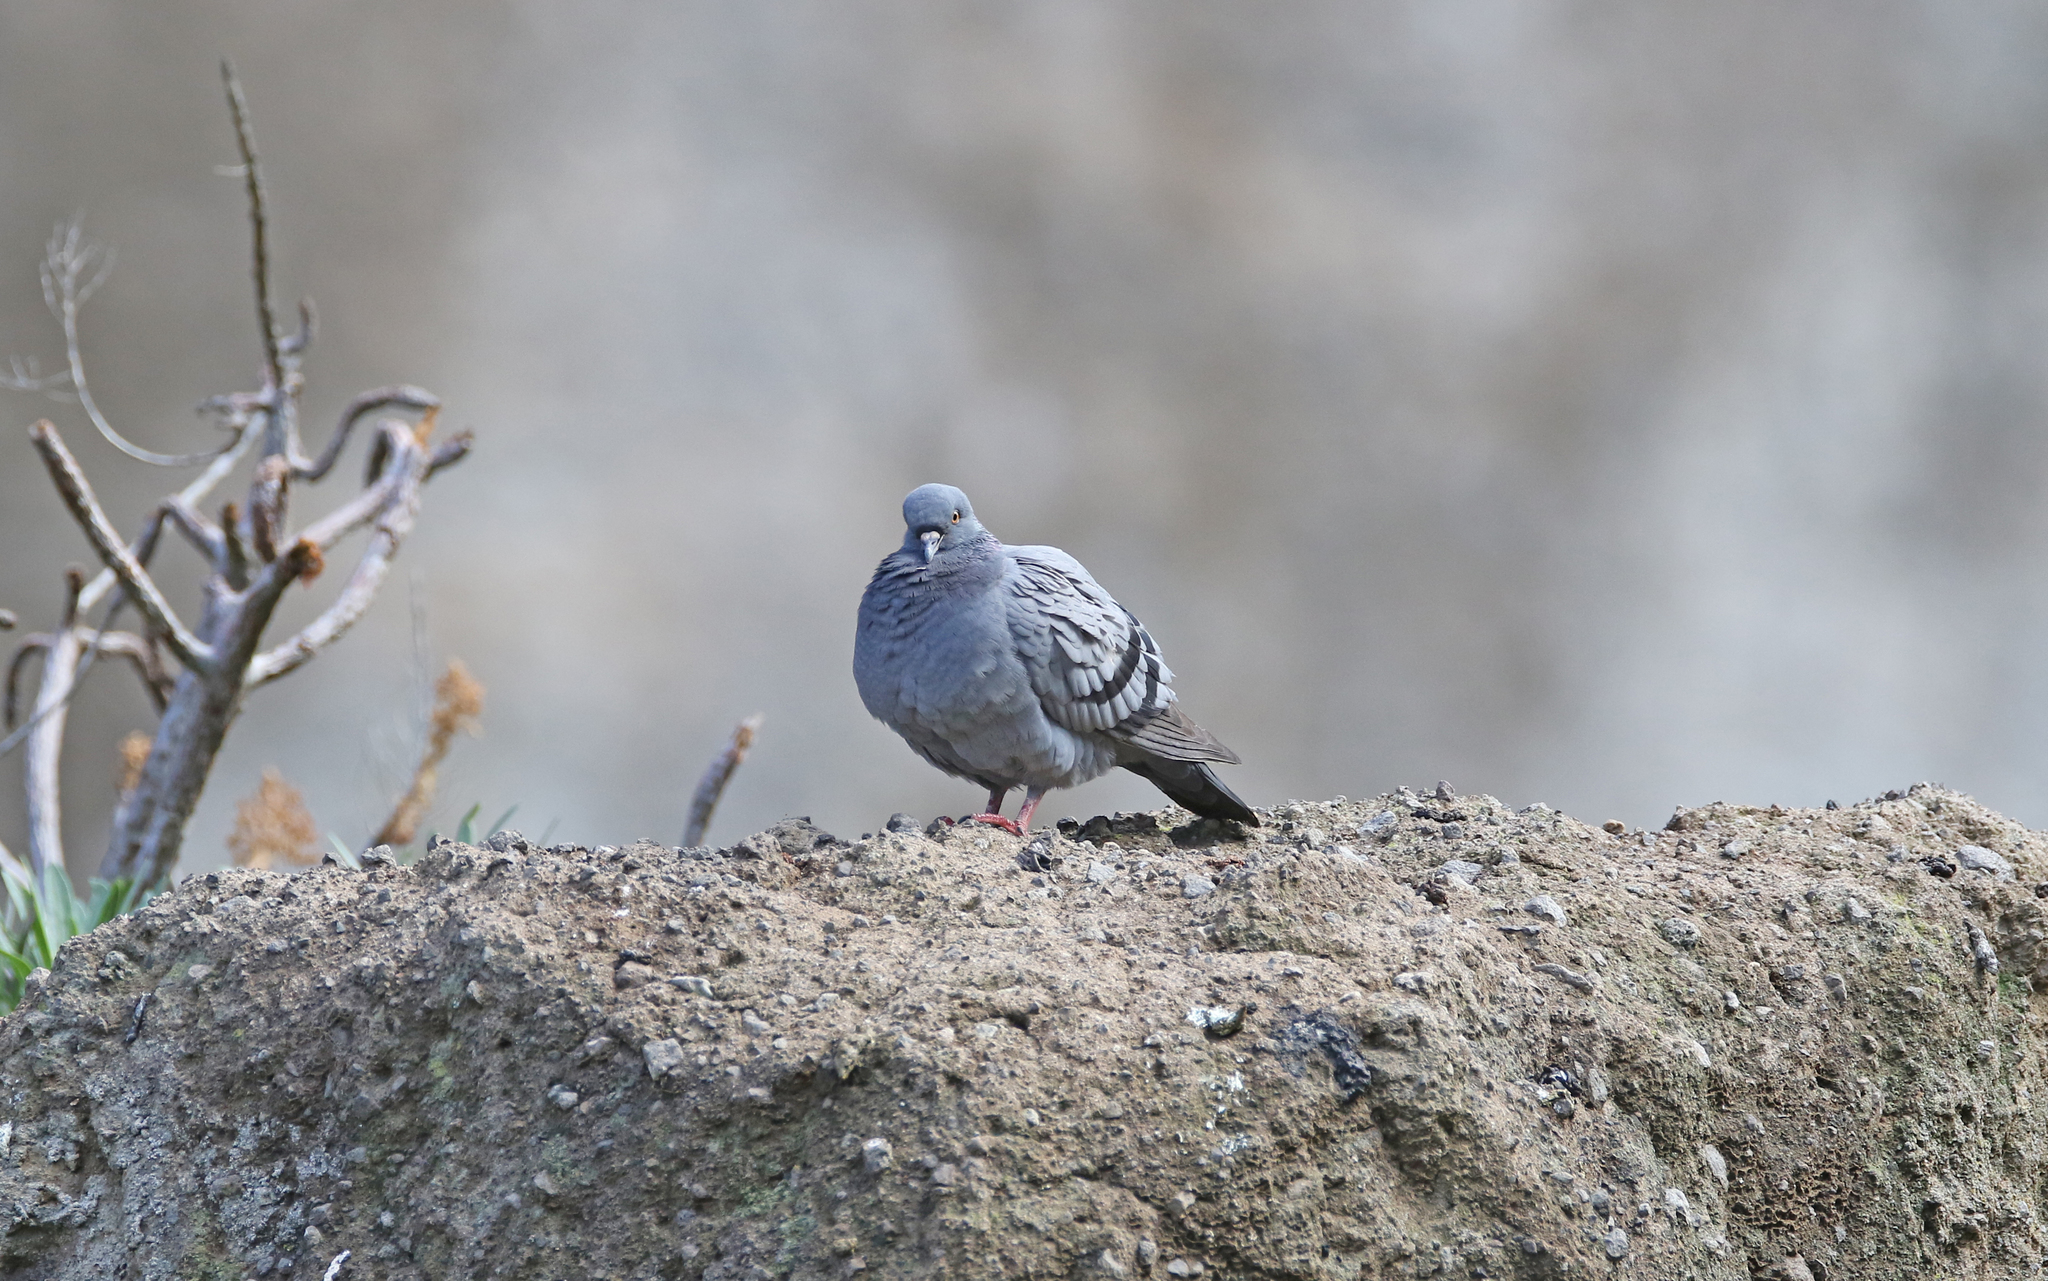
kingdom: Animalia
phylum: Chordata
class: Aves
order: Columbiformes
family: Columbidae
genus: Columba
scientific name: Columba livia
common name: Rock pigeon
